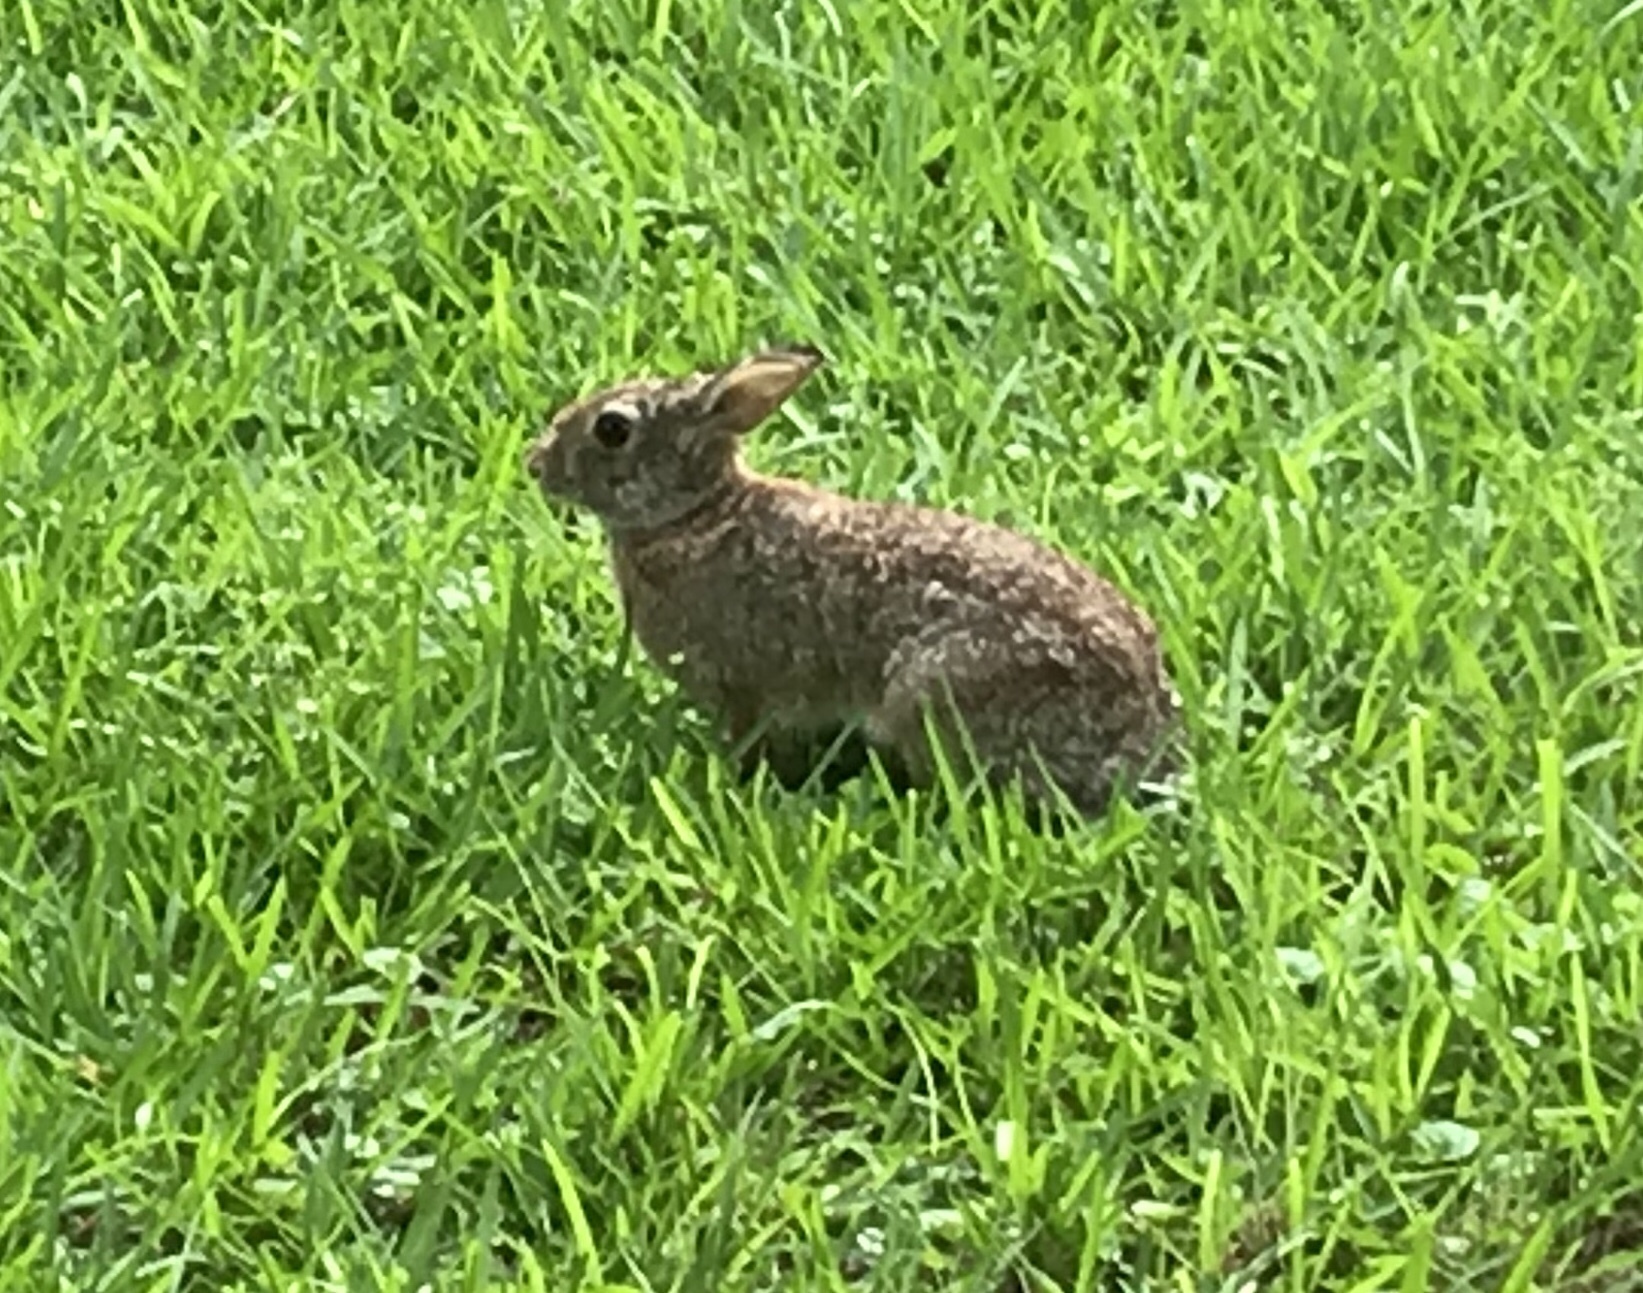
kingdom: Animalia
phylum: Chordata
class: Mammalia
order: Lagomorpha
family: Leporidae
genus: Sylvilagus
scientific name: Sylvilagus floridanus
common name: Eastern cottontail
